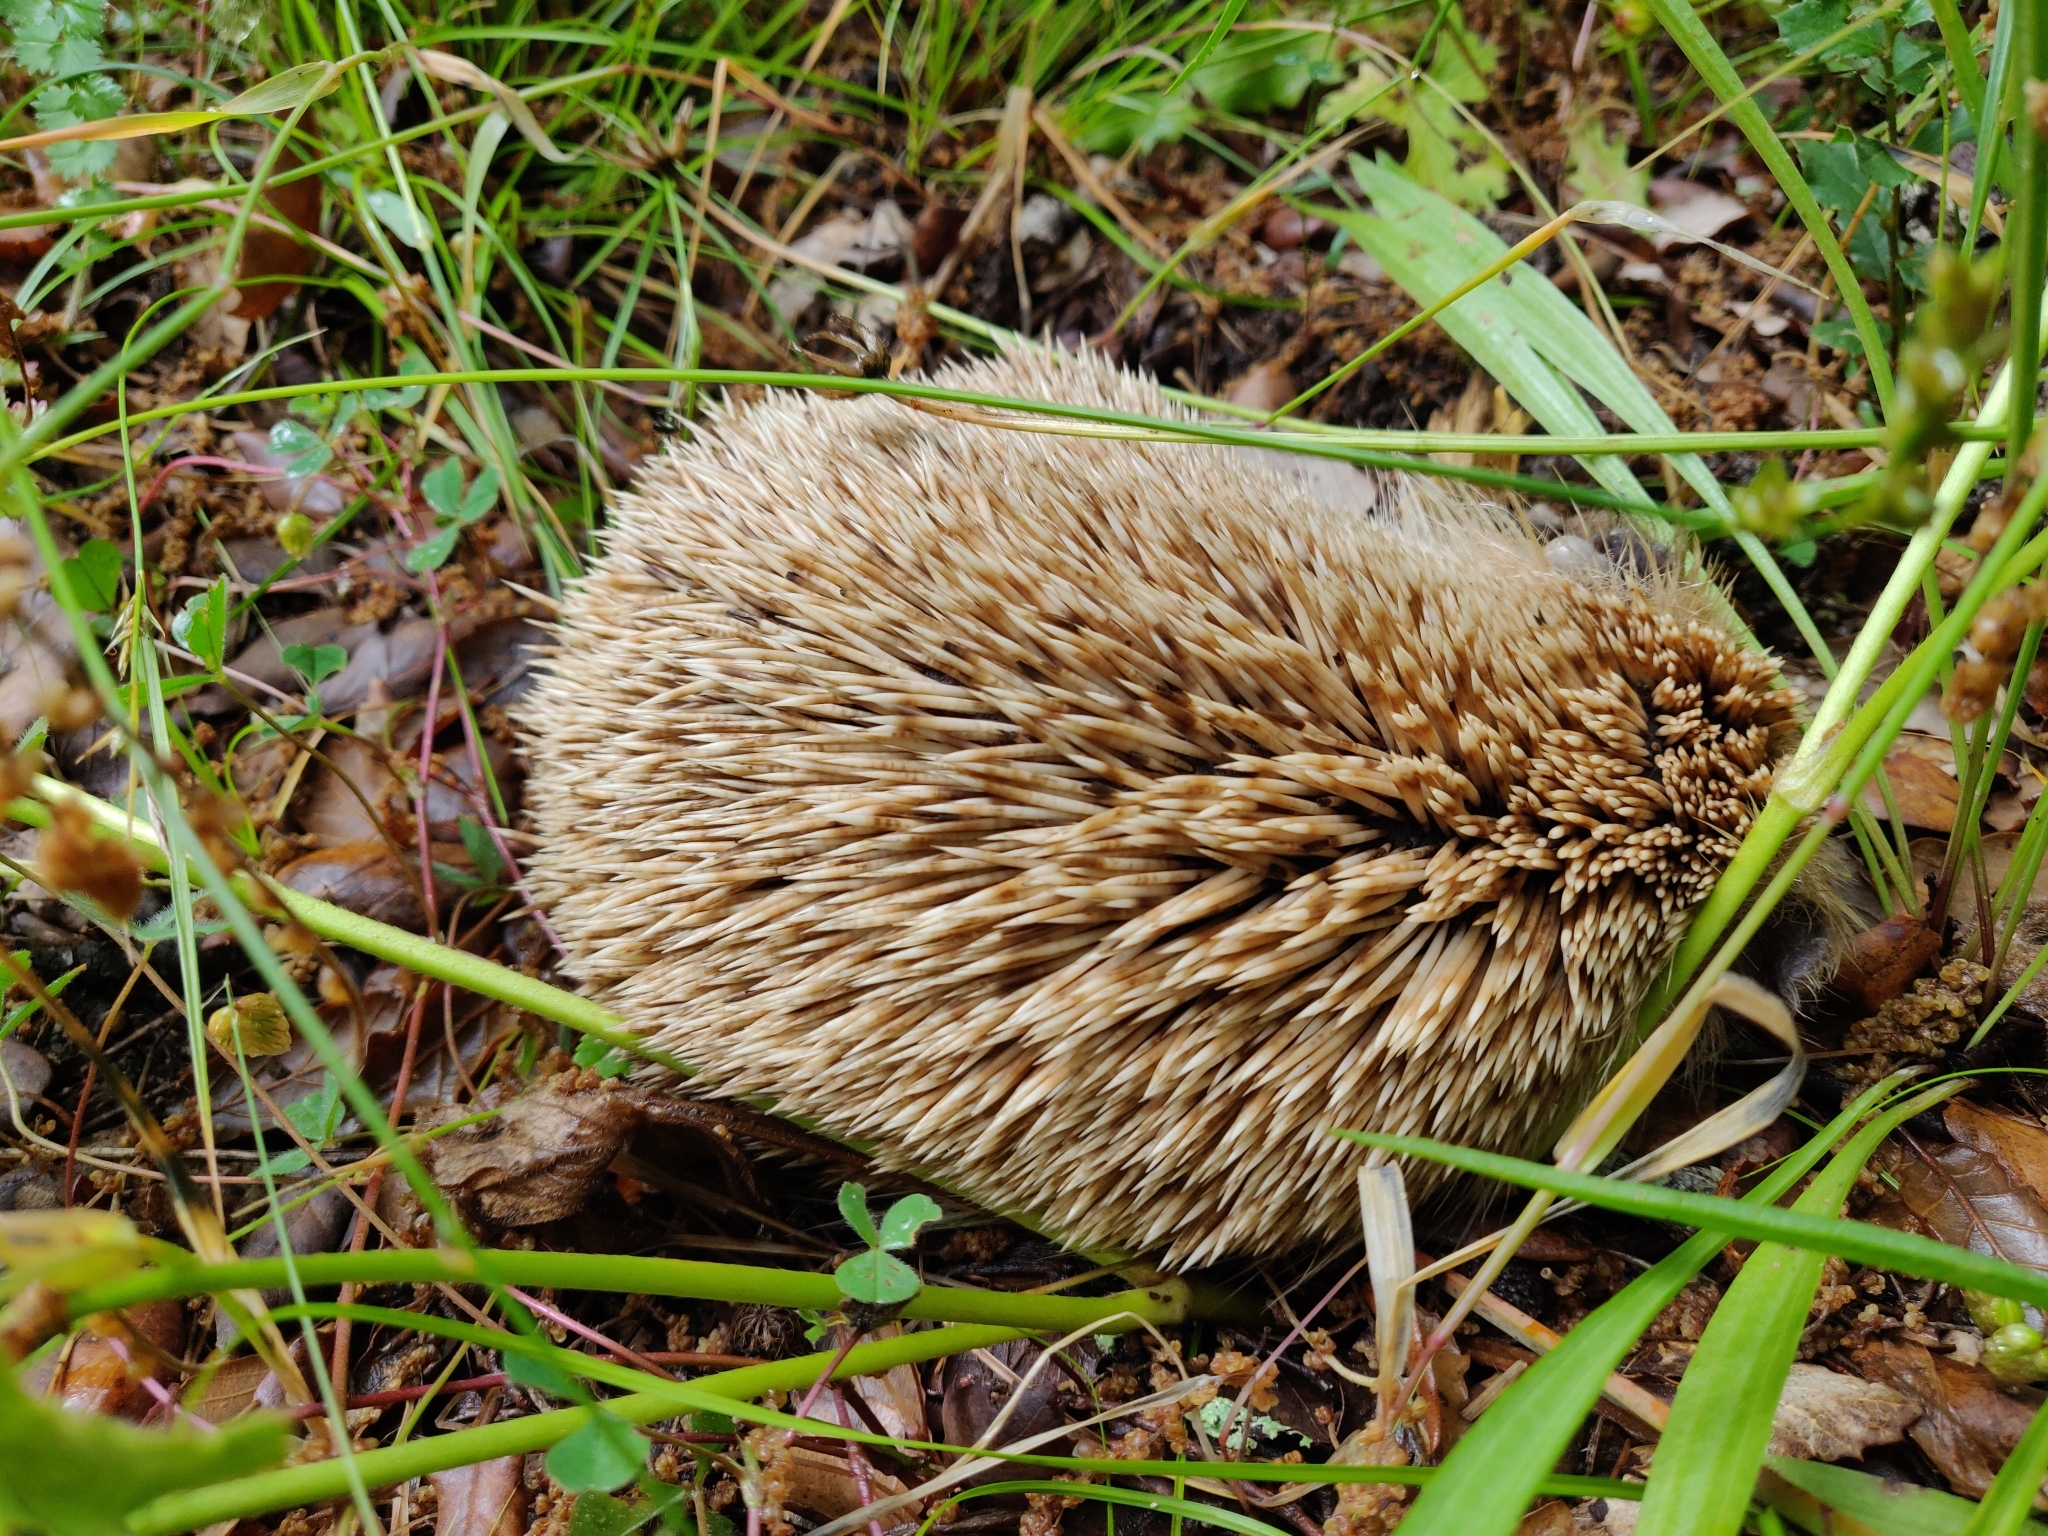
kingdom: Animalia
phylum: Chordata
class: Mammalia
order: Erinaceomorpha
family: Erinaceidae
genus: Erinaceus
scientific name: Erinaceus europaeus
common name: West european hedgehog
